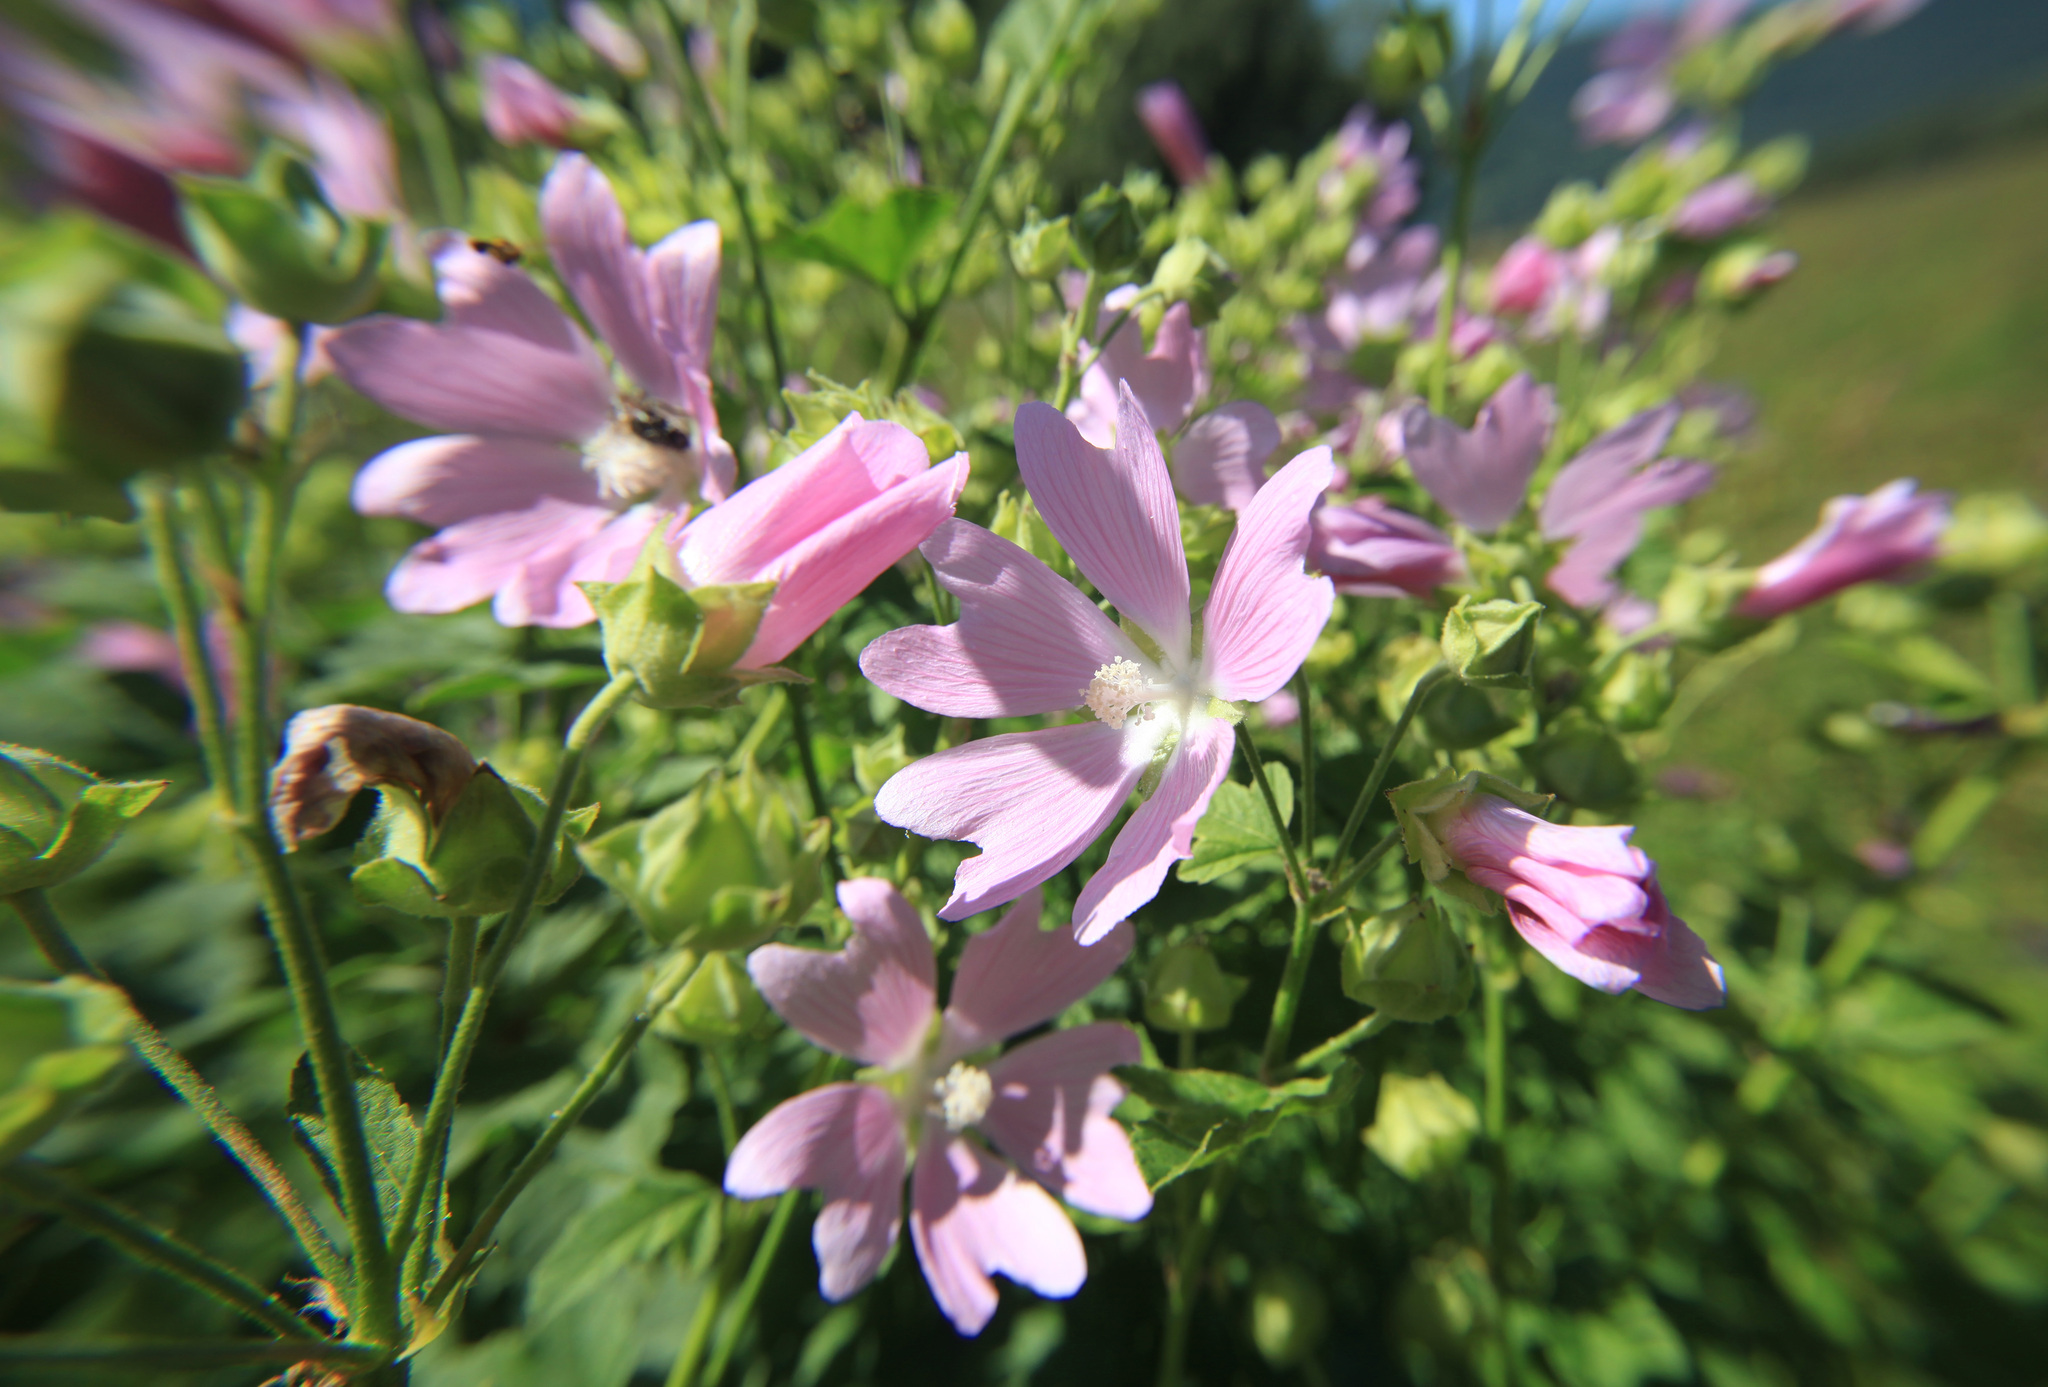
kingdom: Plantae
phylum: Tracheophyta
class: Magnoliopsida
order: Malvales
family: Malvaceae
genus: Malva
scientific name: Malva thuringiaca
